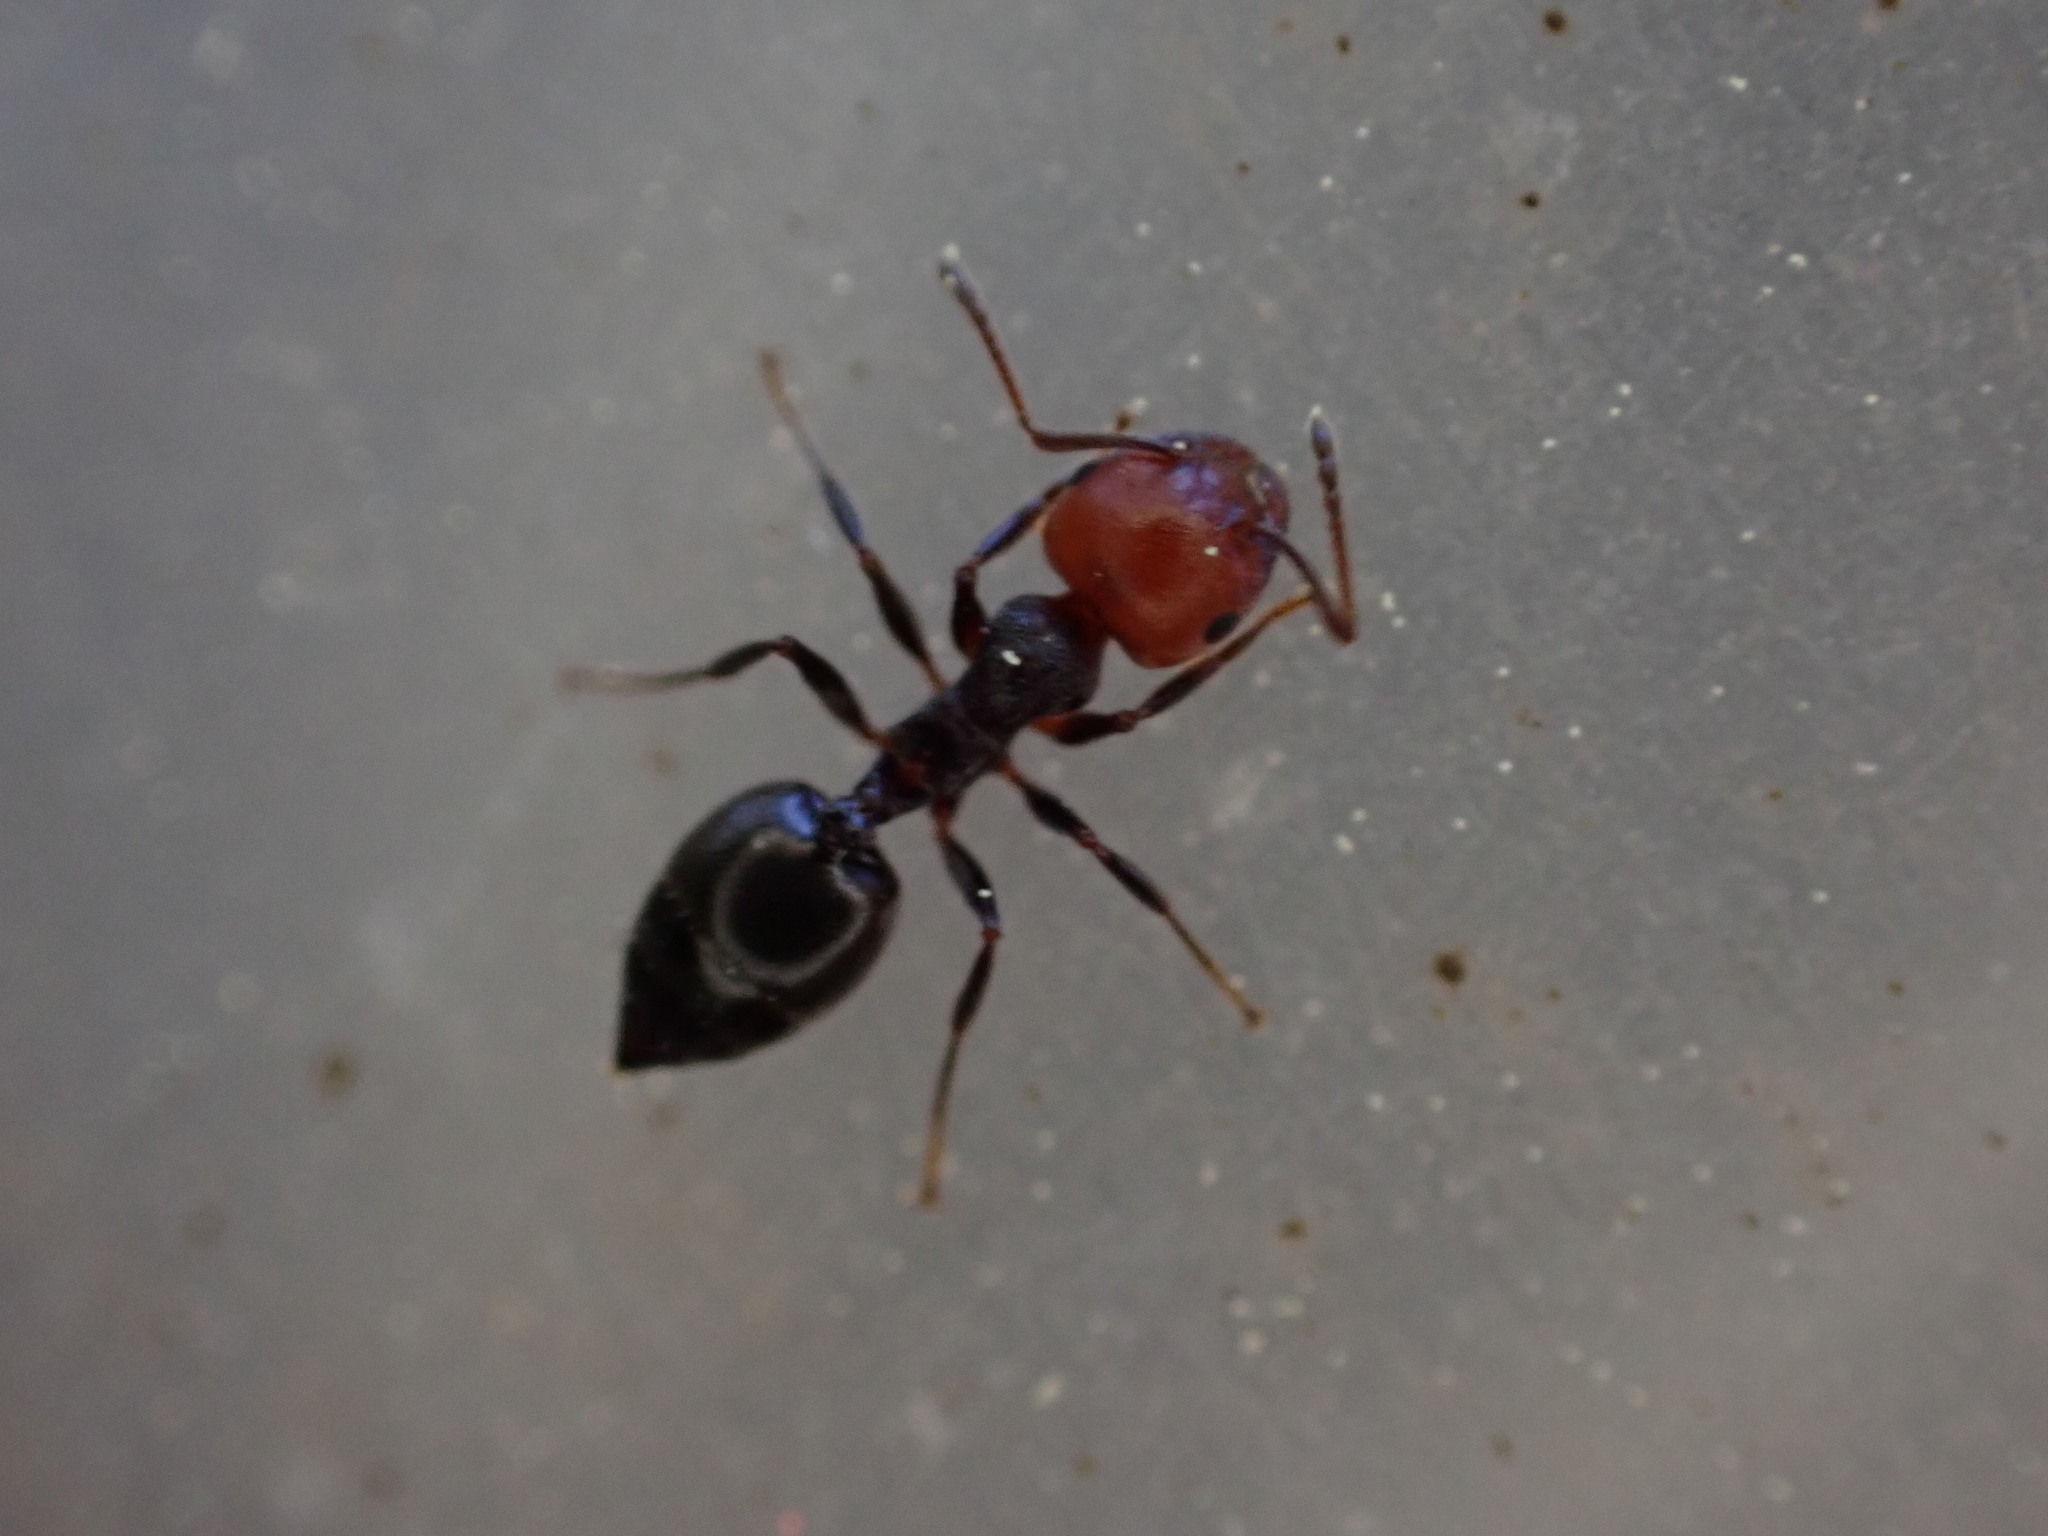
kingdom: Animalia
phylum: Arthropoda
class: Insecta
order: Hymenoptera
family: Formicidae
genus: Crematogaster
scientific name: Crematogaster scutellaris
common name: Fourmi du liège
